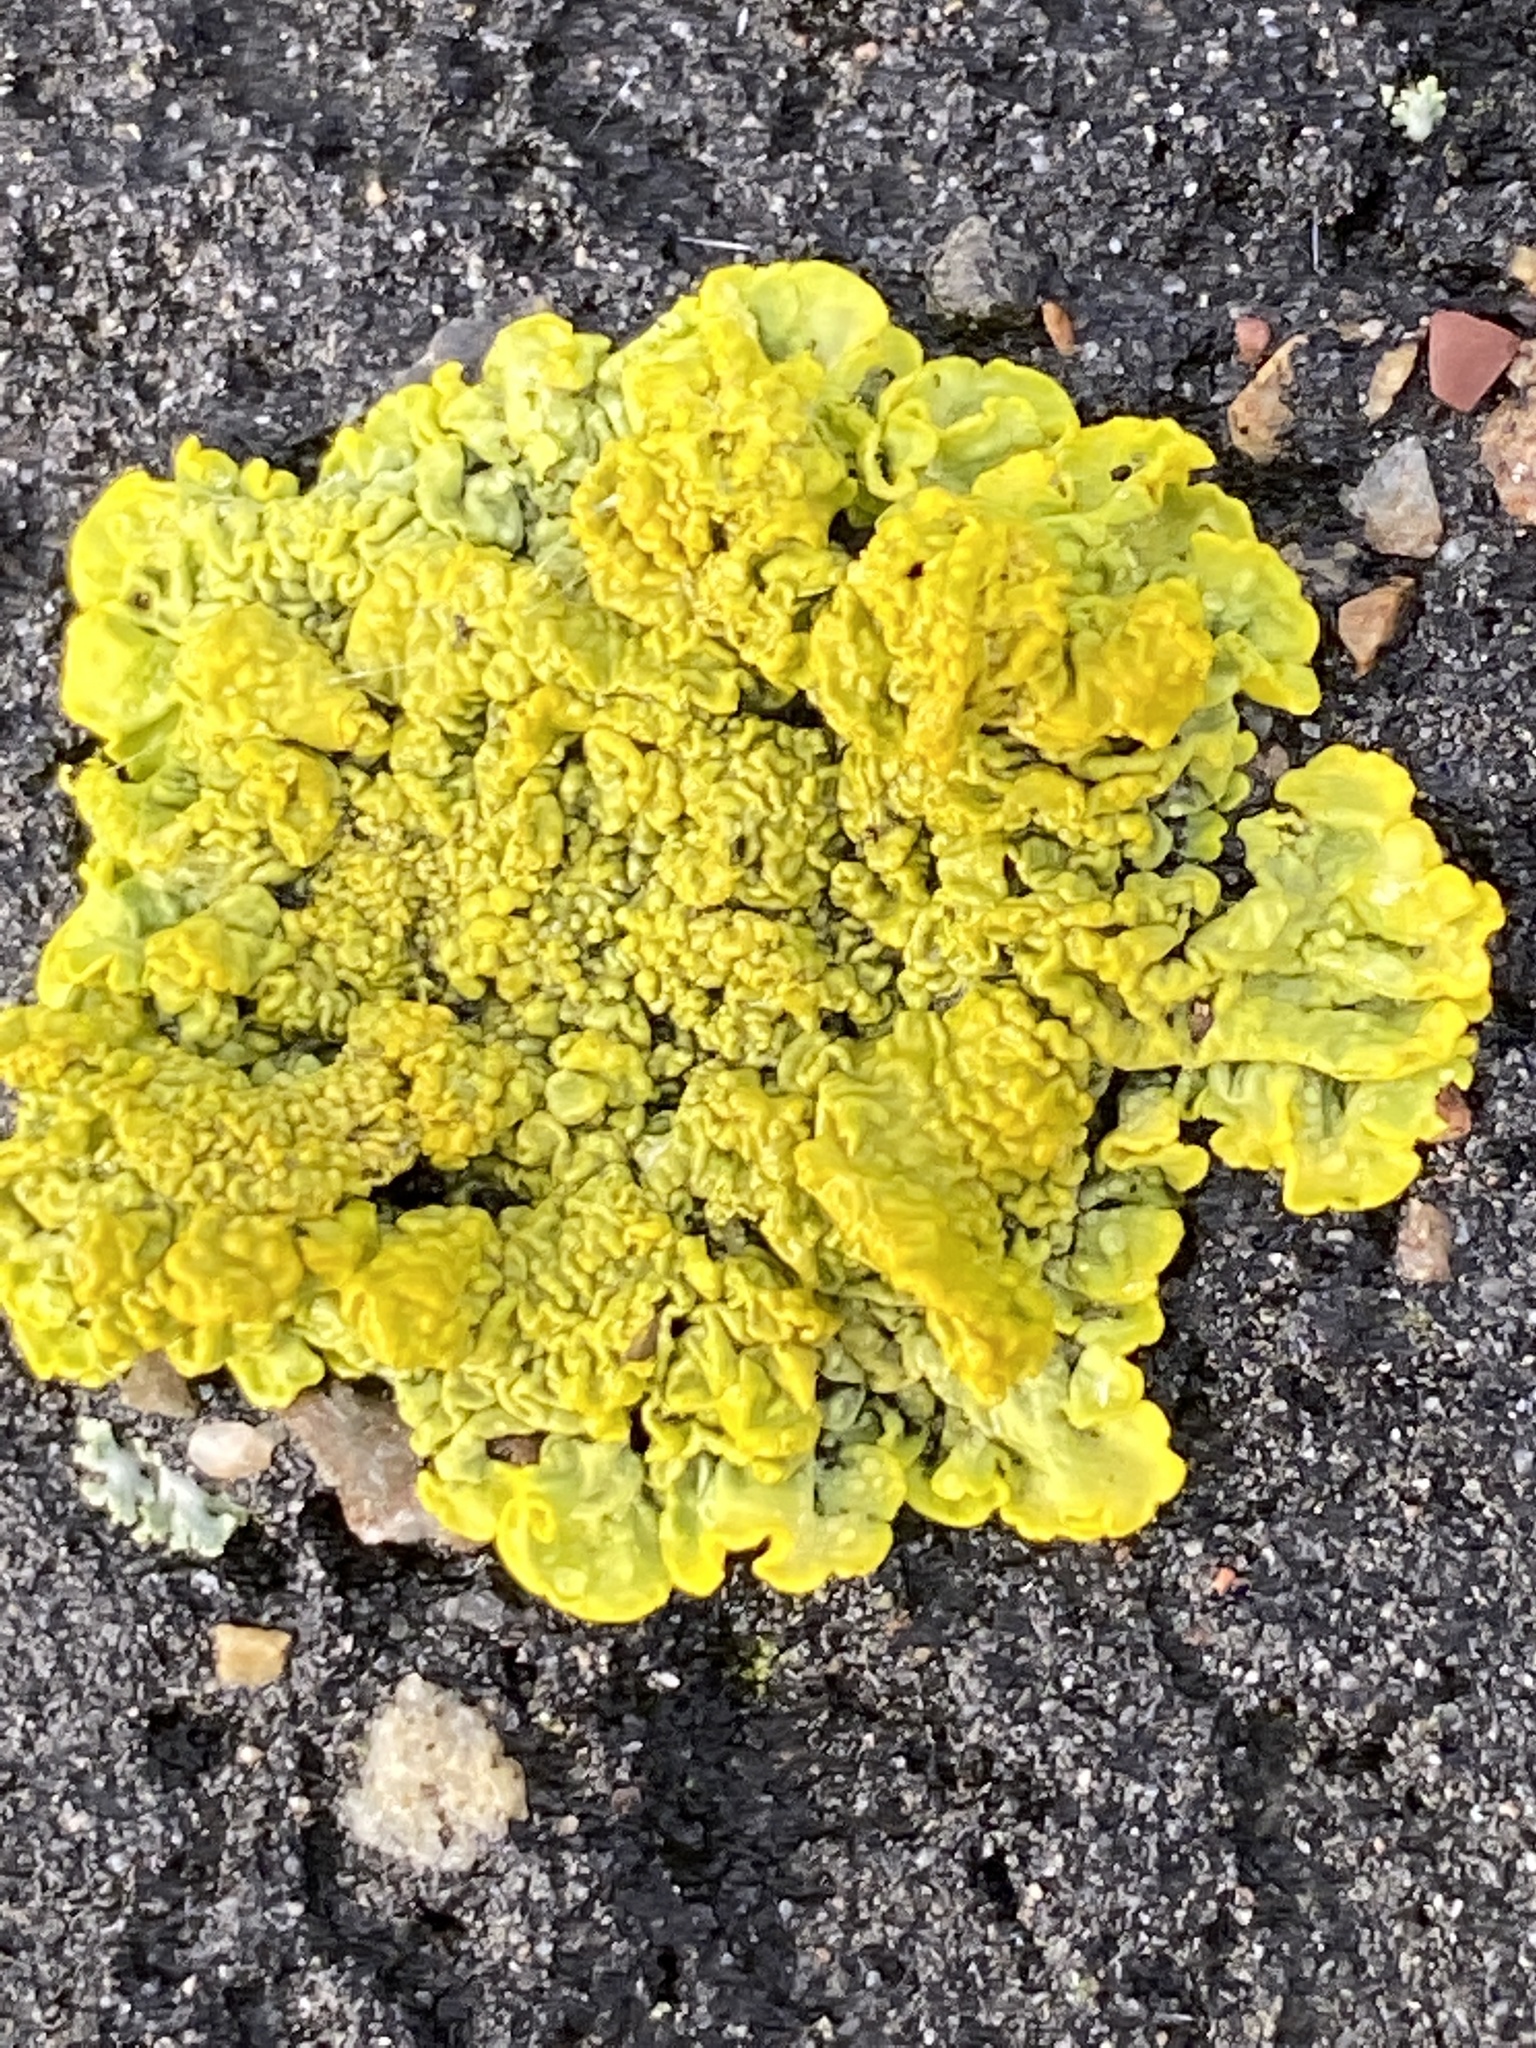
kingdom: Fungi
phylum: Ascomycota
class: Lecanoromycetes
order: Teloschistales
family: Teloschistaceae
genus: Xanthoria
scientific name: Xanthoria calcicola
